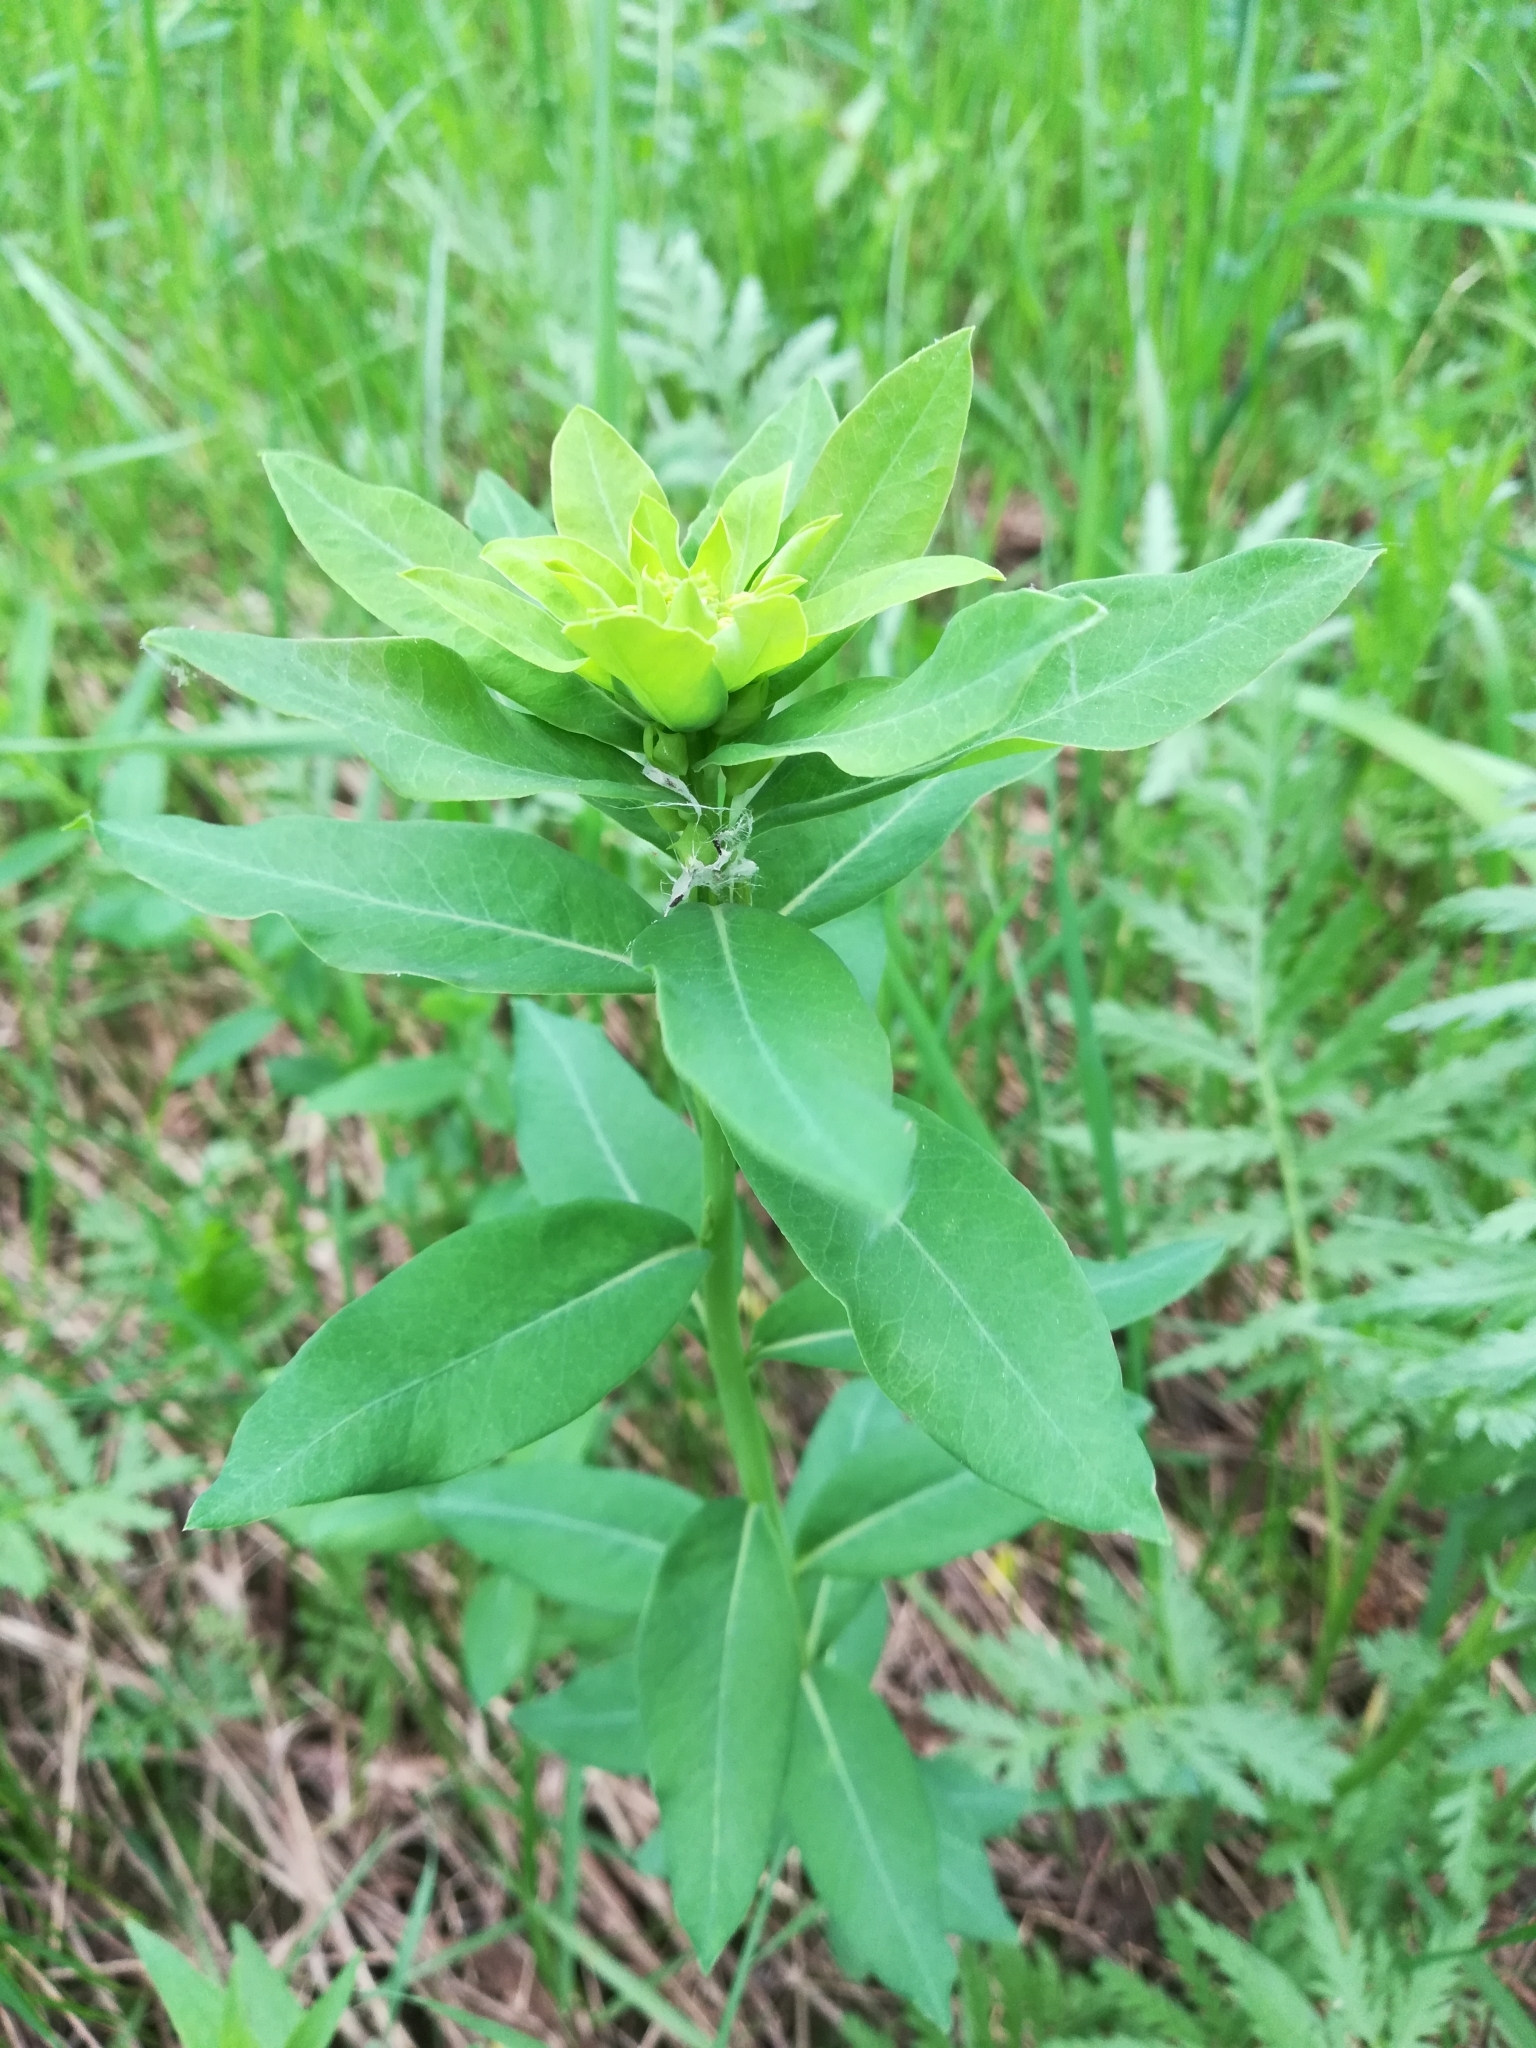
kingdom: Plantae
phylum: Tracheophyta
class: Magnoliopsida
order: Malpighiales
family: Euphorbiaceae
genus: Euphorbia
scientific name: Euphorbia esula
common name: Leafy spurge
